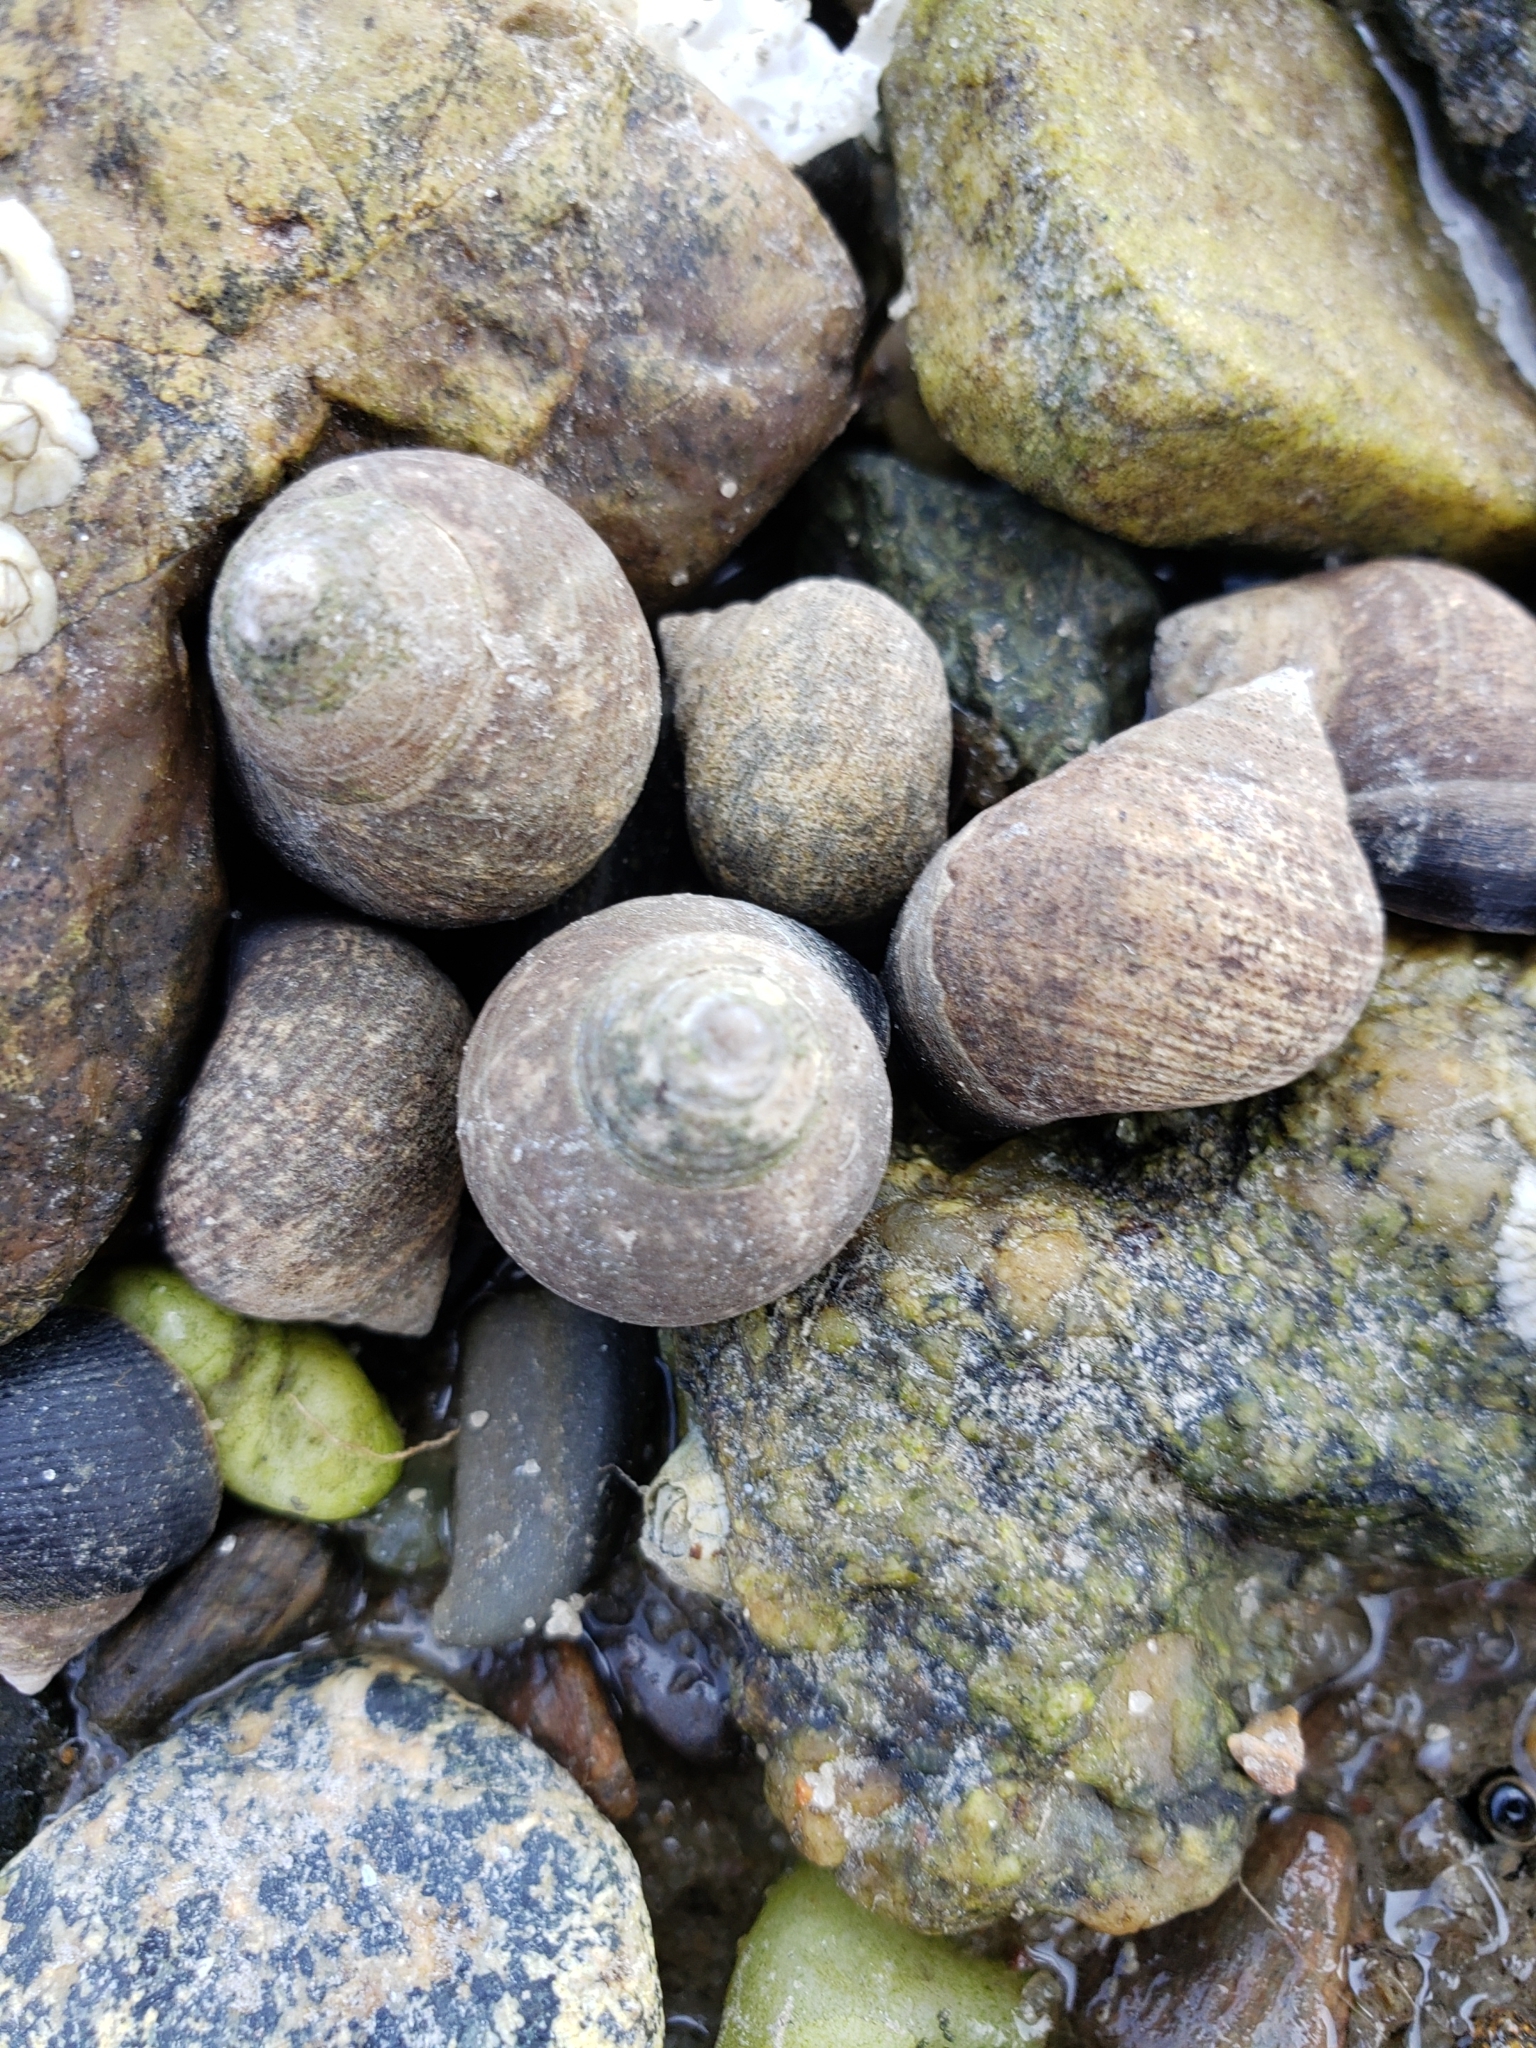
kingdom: Animalia
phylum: Mollusca
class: Gastropoda
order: Littorinimorpha
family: Littorinidae
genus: Littorina
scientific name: Littorina littorea
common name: Common periwinkle
